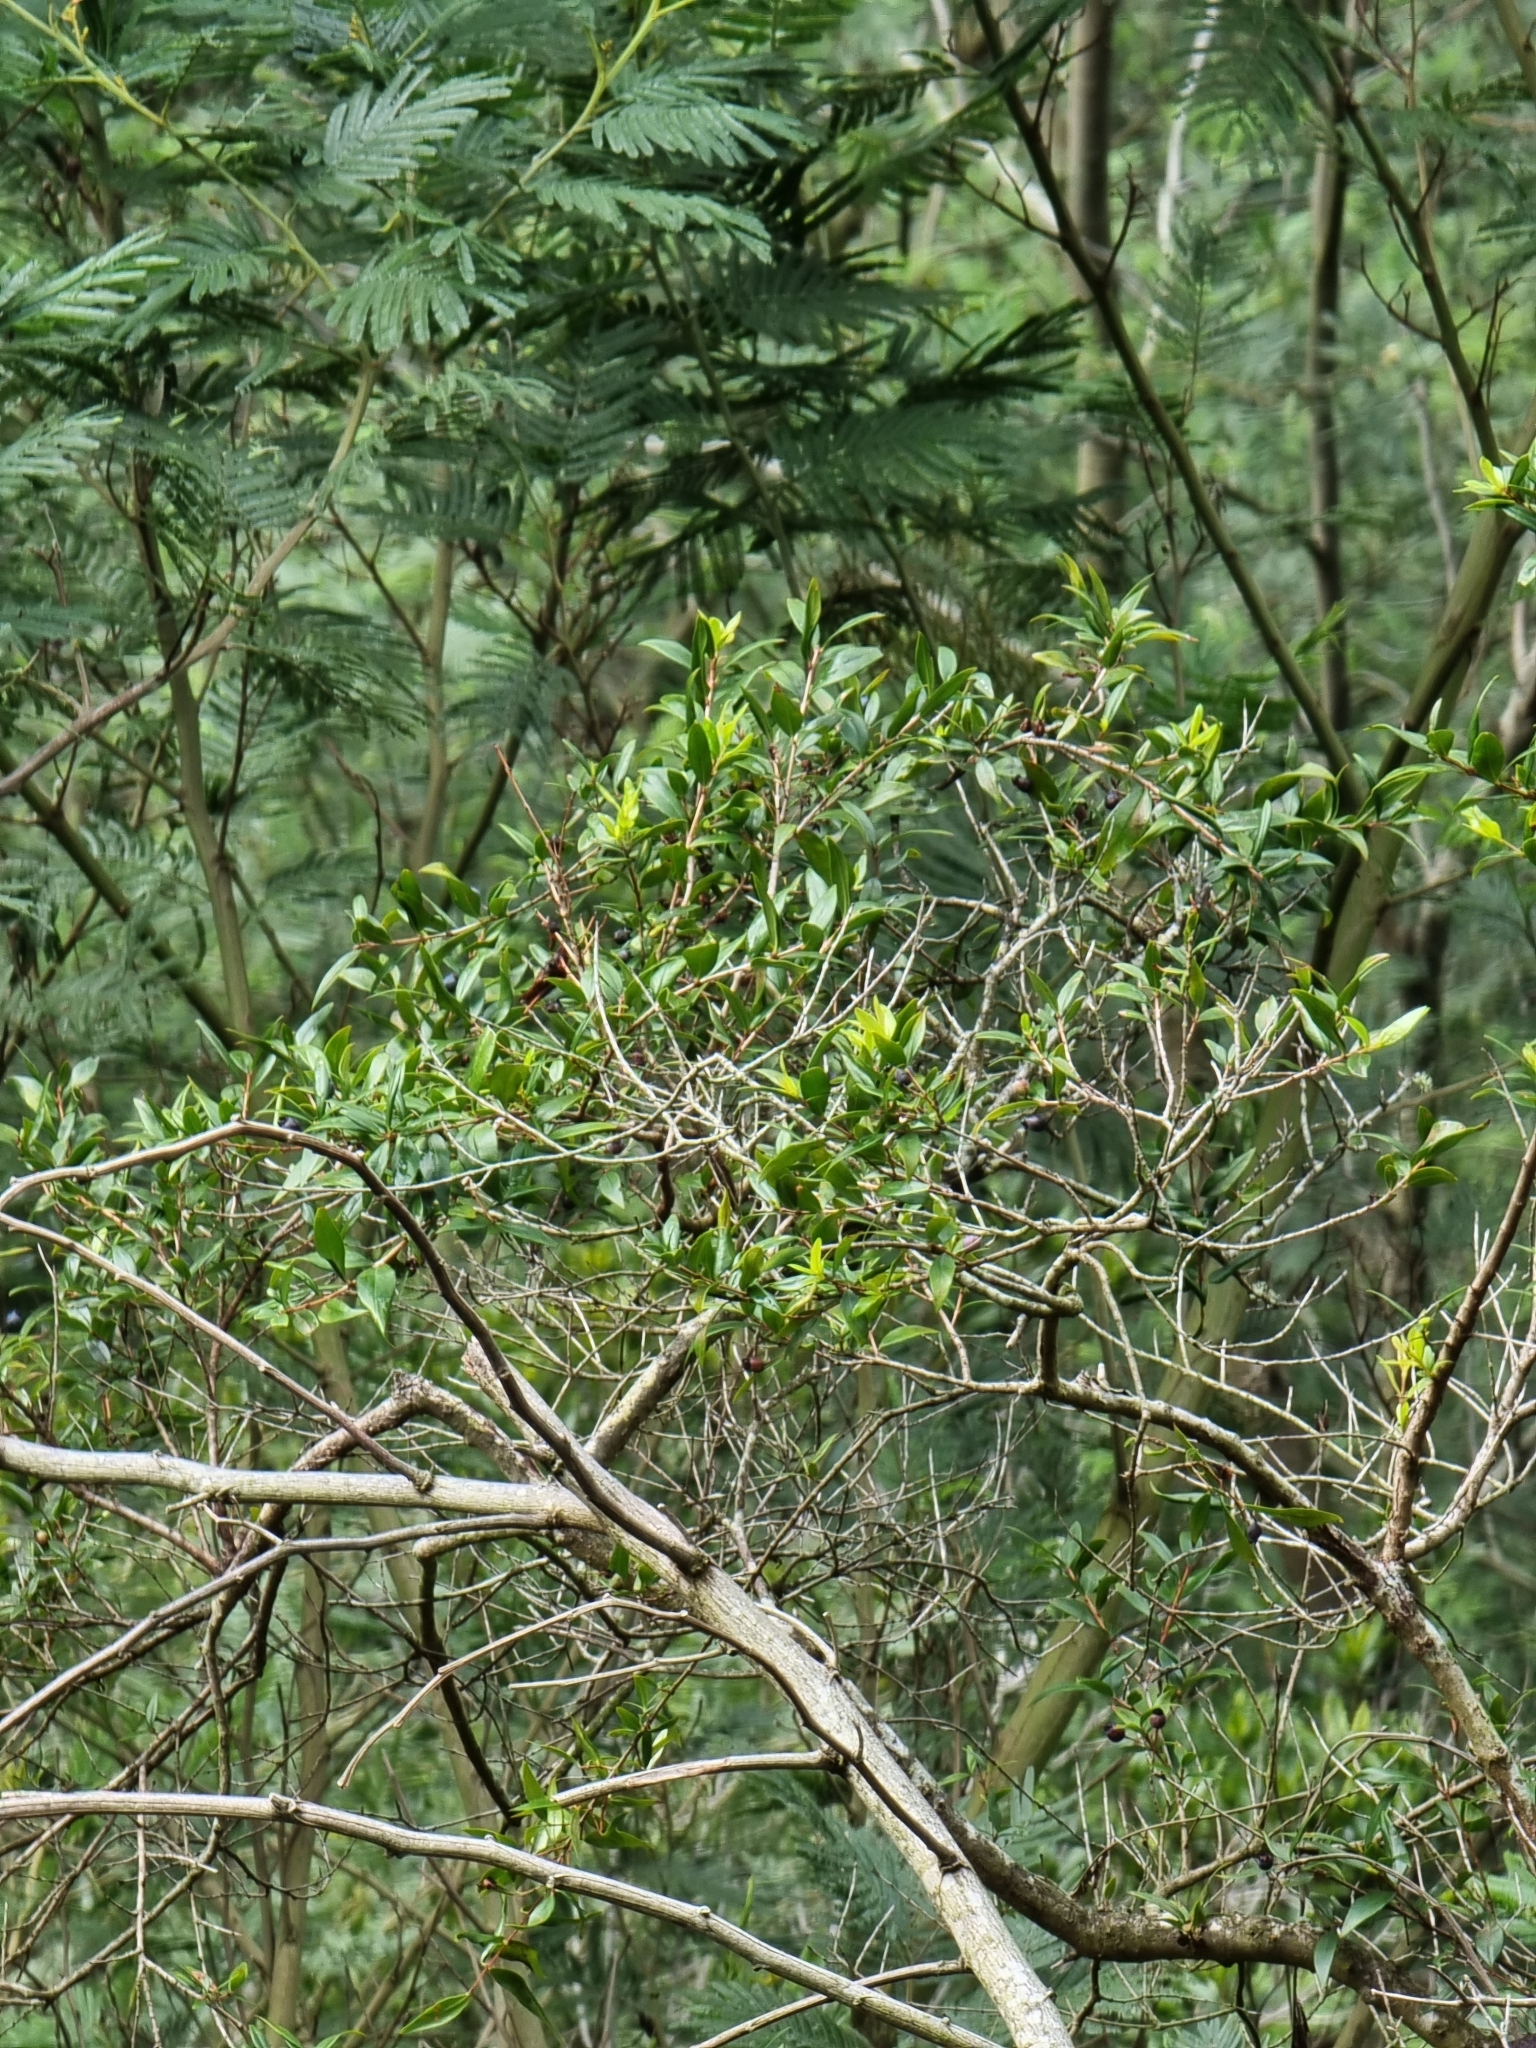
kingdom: Plantae
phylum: Tracheophyta
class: Magnoliopsida
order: Myrtales
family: Myrtaceae
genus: Myrtus
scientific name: Myrtus communis
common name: Myrtle
